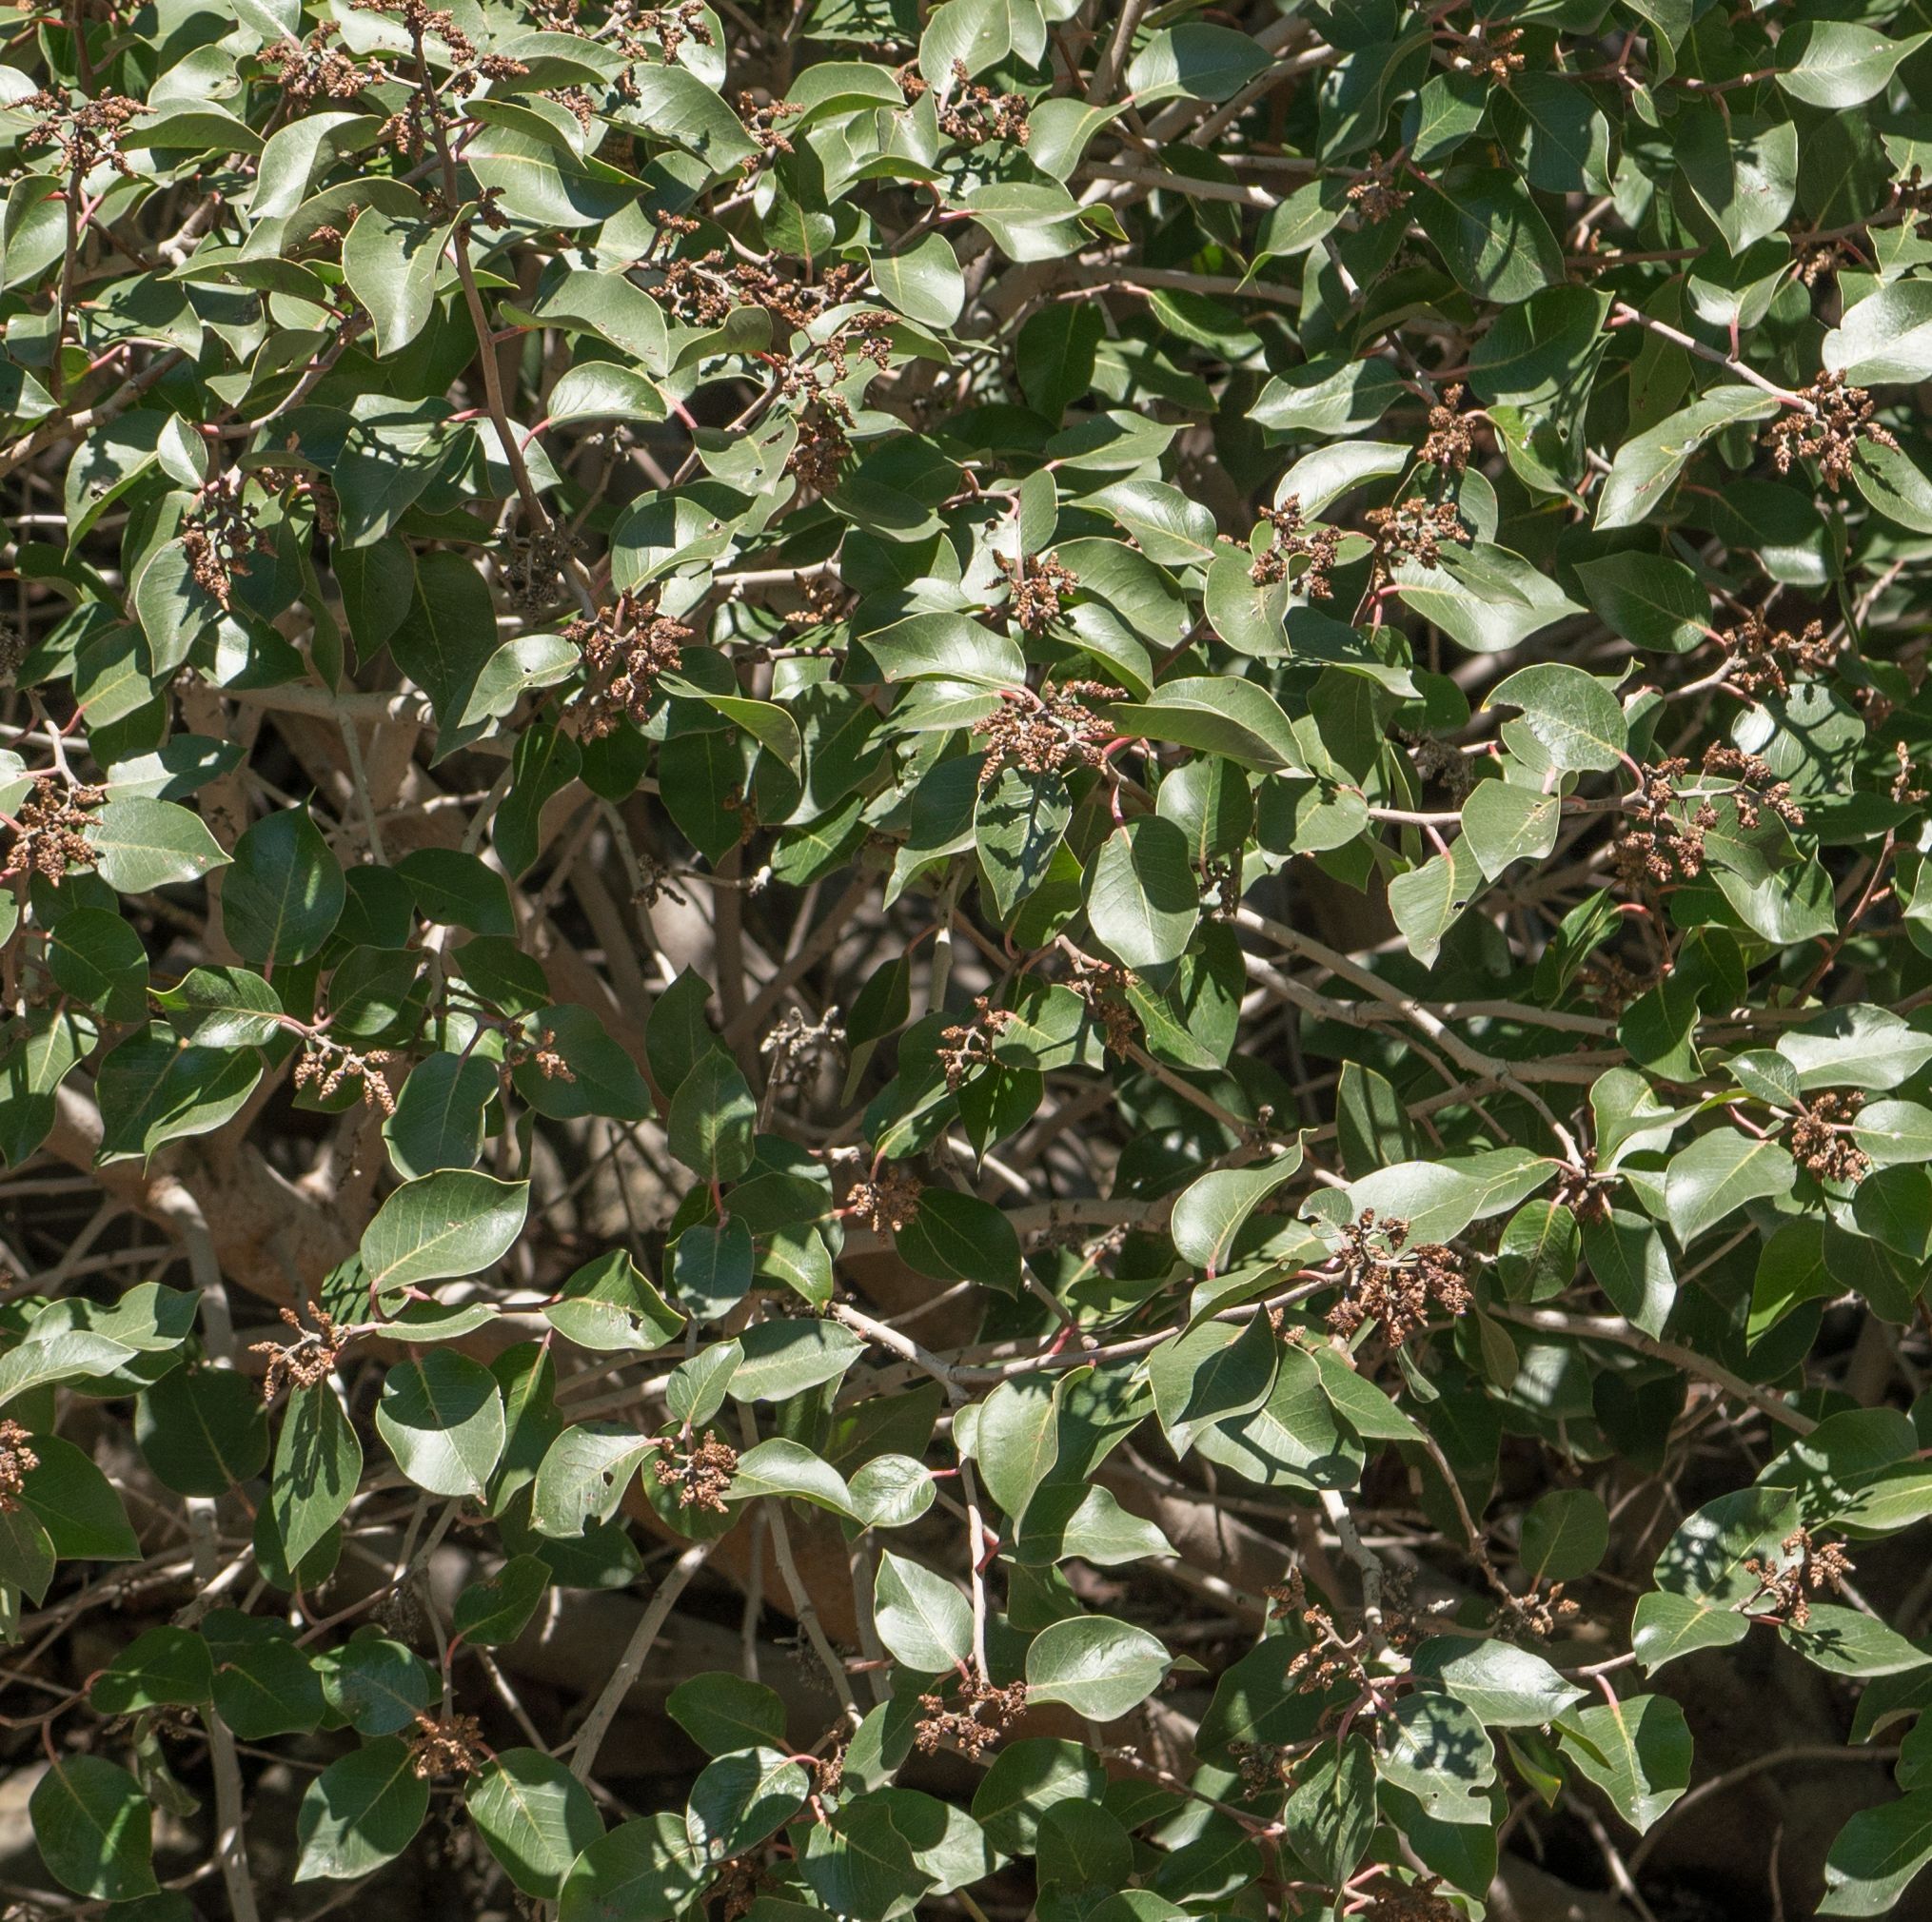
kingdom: Plantae
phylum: Tracheophyta
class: Magnoliopsida
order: Sapindales
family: Anacardiaceae
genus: Rhus
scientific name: Rhus ovata
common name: Sugar sumac
